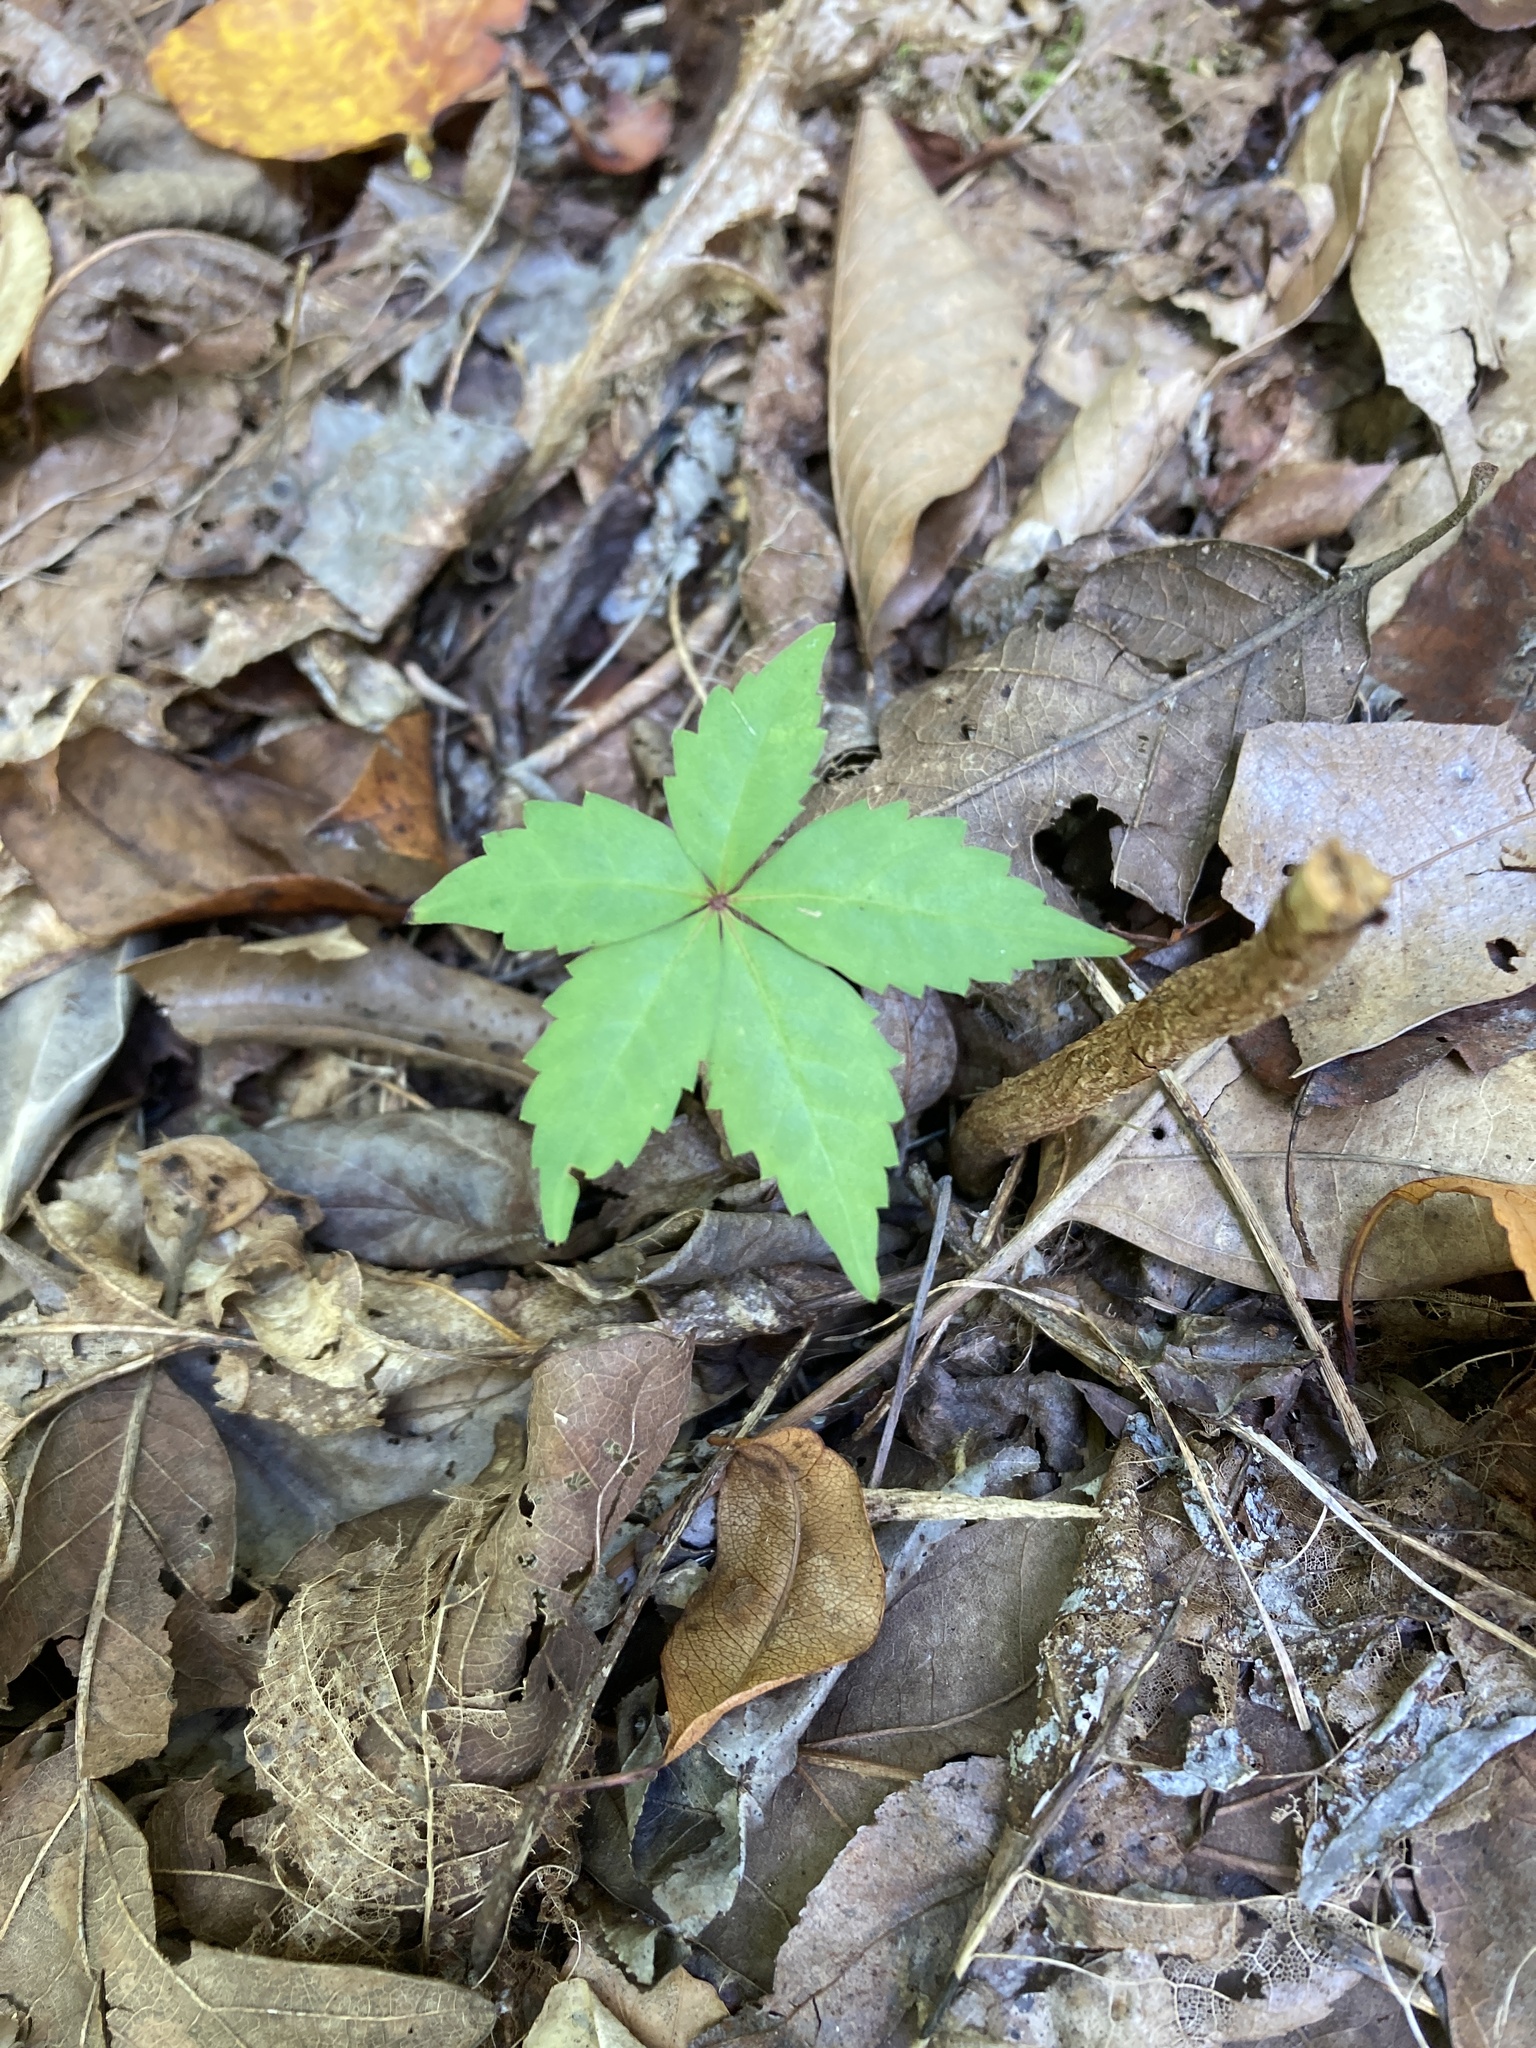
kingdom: Plantae
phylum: Tracheophyta
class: Magnoliopsida
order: Vitales
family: Vitaceae
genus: Parthenocissus
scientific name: Parthenocissus quinquefolia
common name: Virginia-creeper
